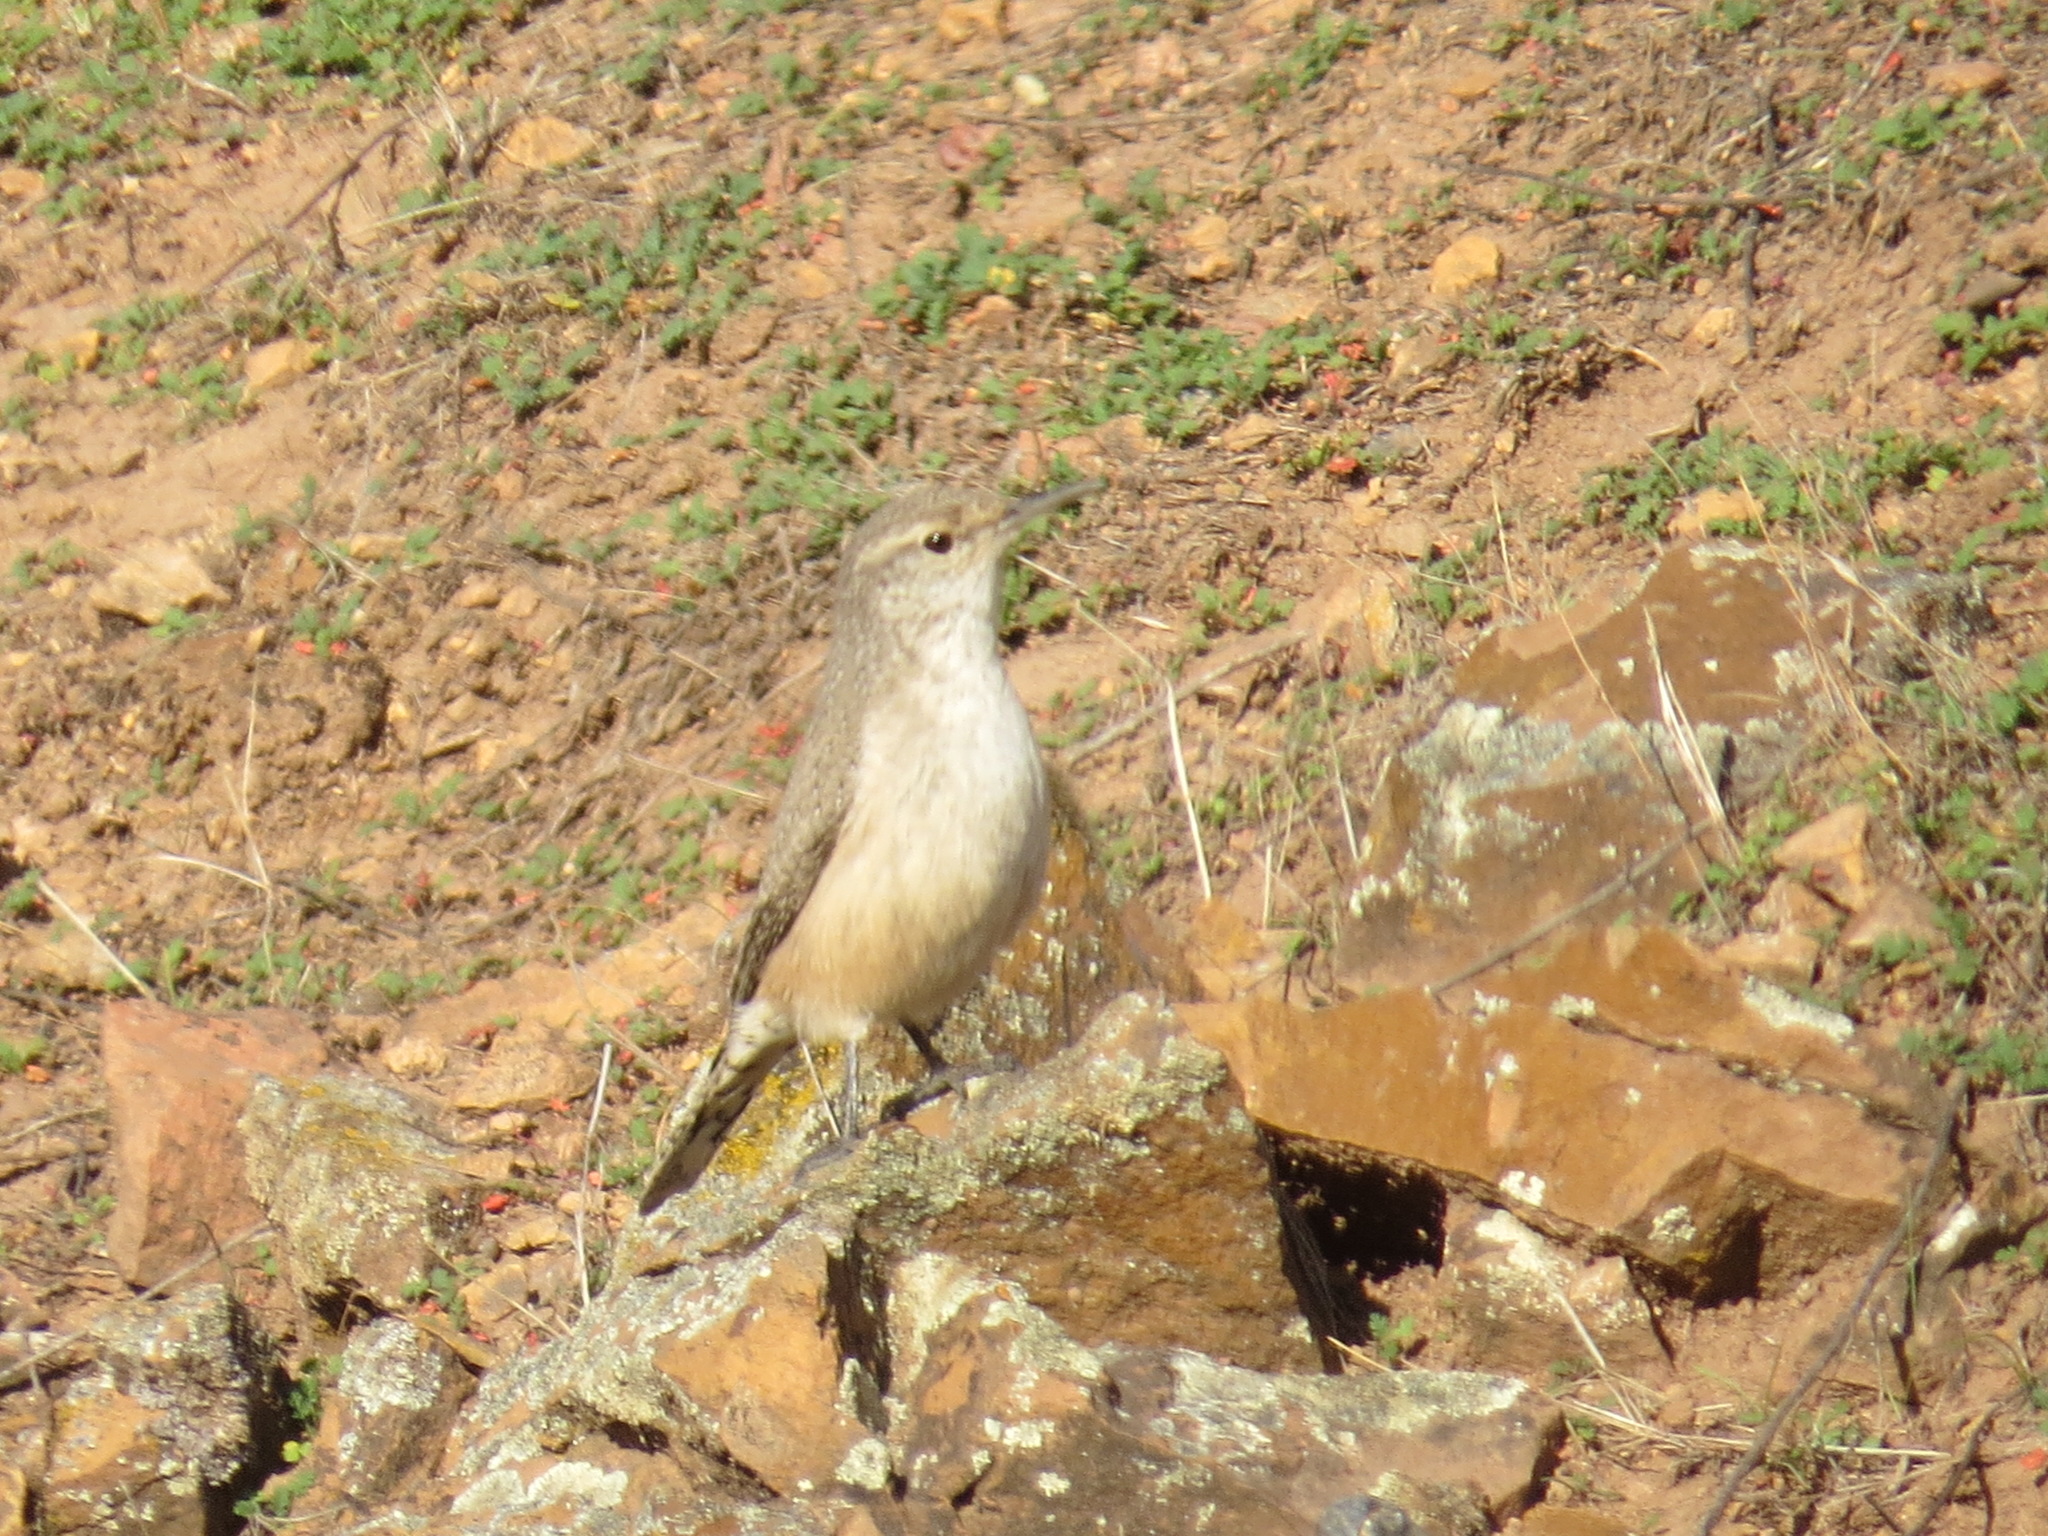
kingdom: Animalia
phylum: Chordata
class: Aves
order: Passeriformes
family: Troglodytidae
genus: Salpinctes
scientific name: Salpinctes obsoletus
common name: Rock wren
